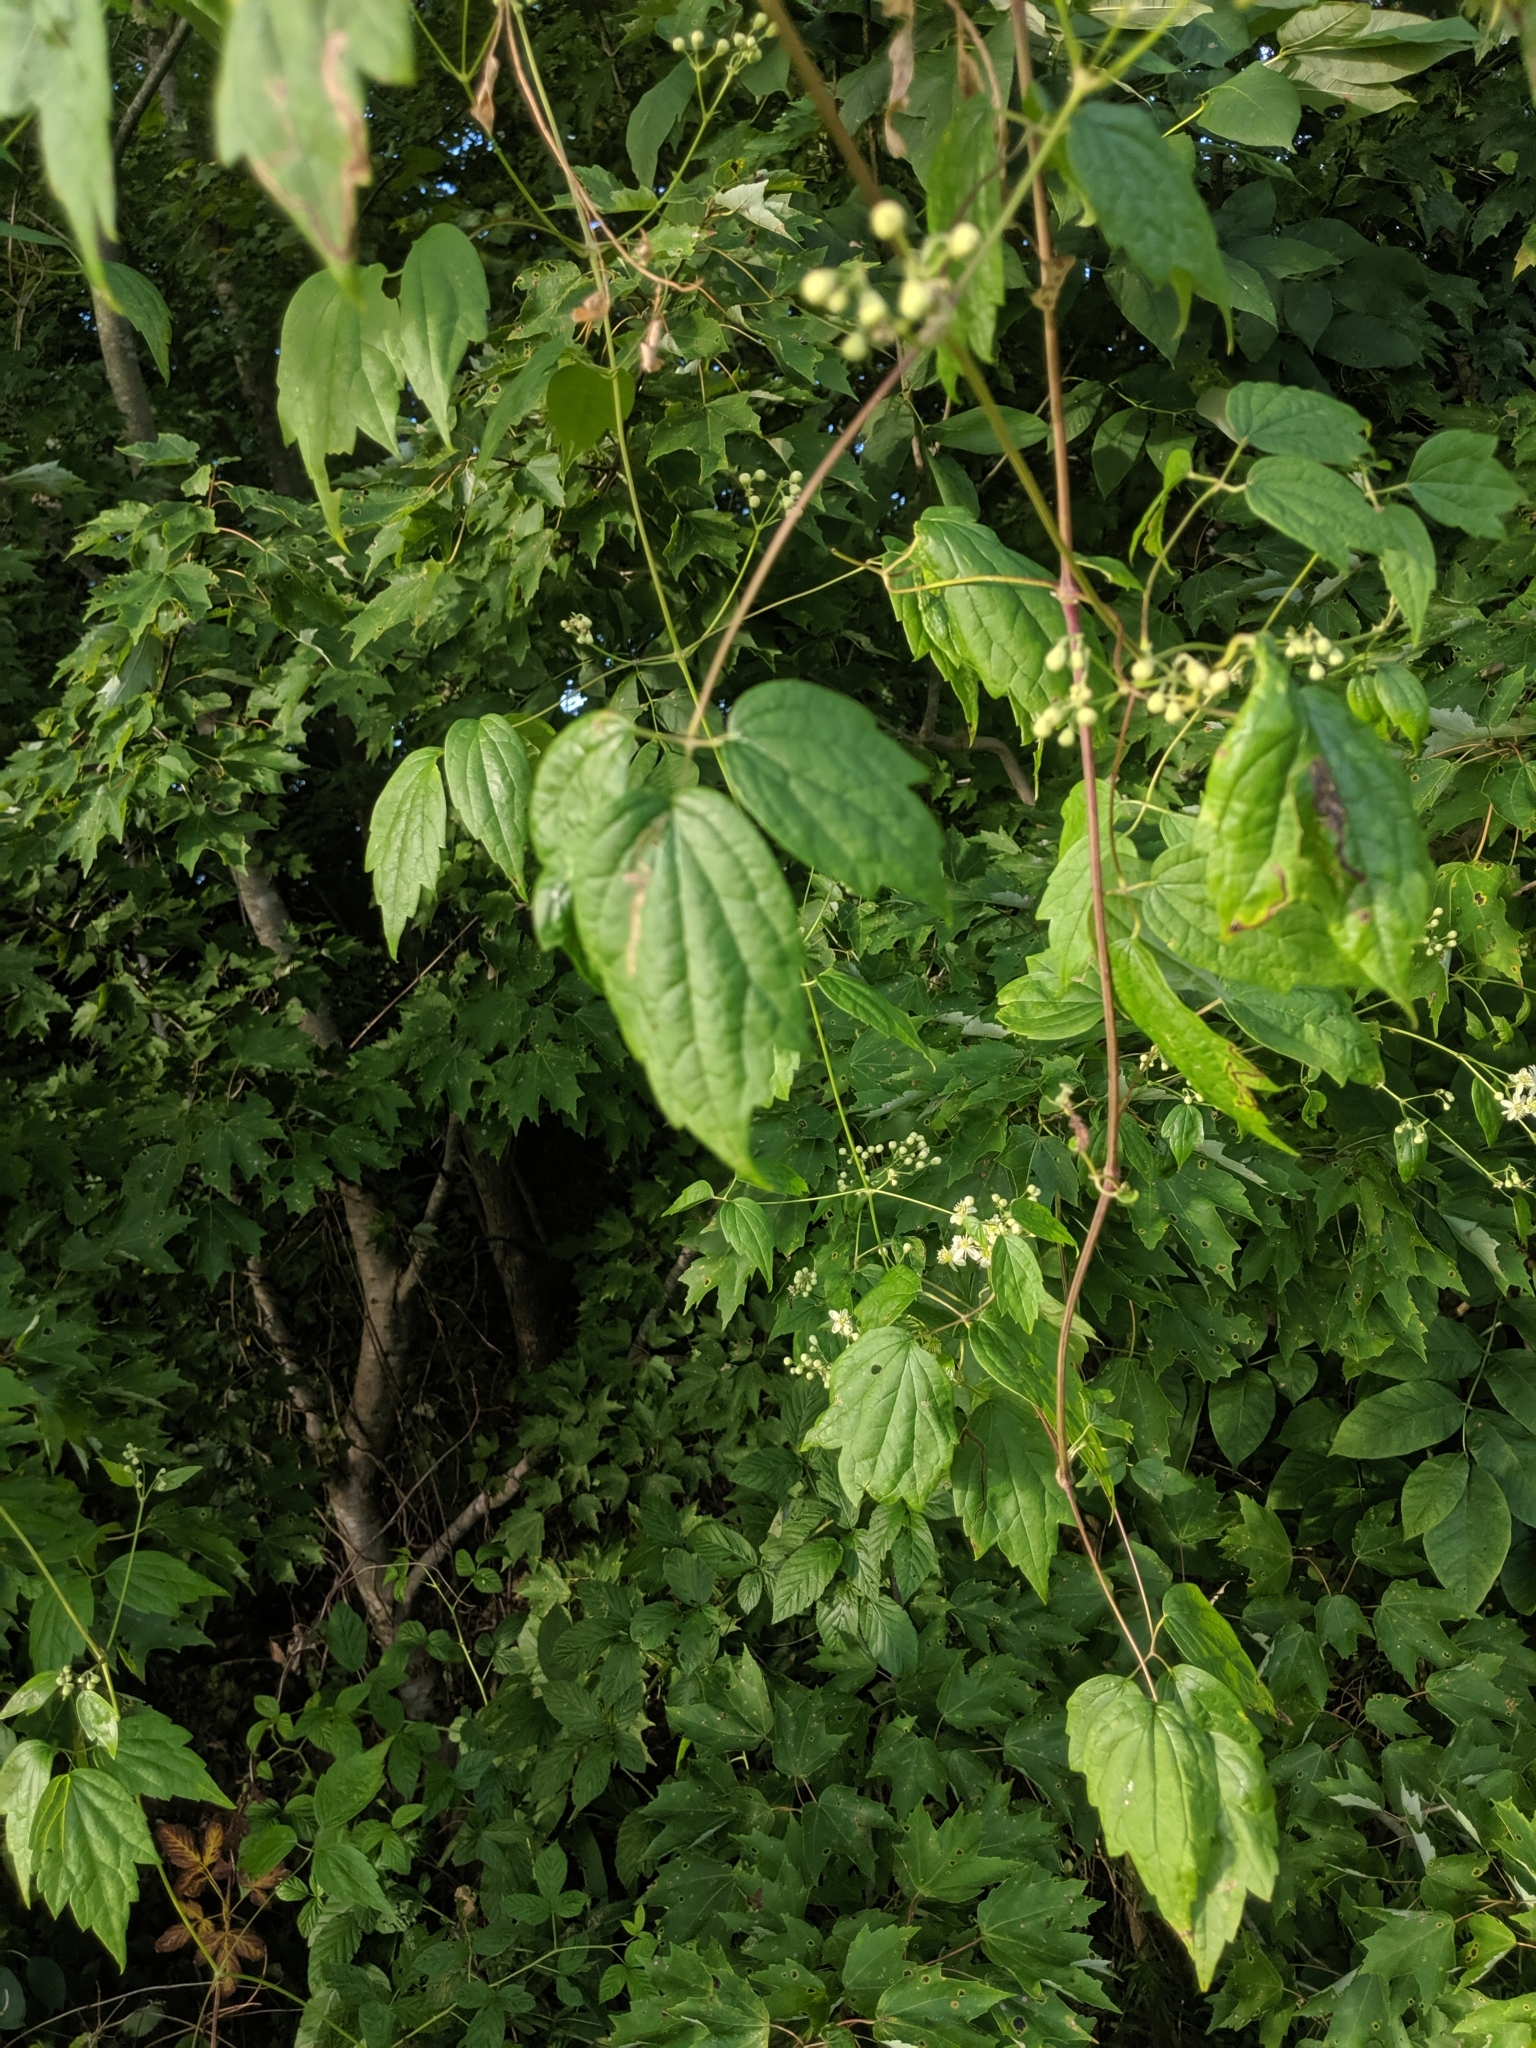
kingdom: Plantae
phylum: Tracheophyta
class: Magnoliopsida
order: Ranunculales
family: Ranunculaceae
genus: Clematis
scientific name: Clematis virginiana
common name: Virgin's-bower
